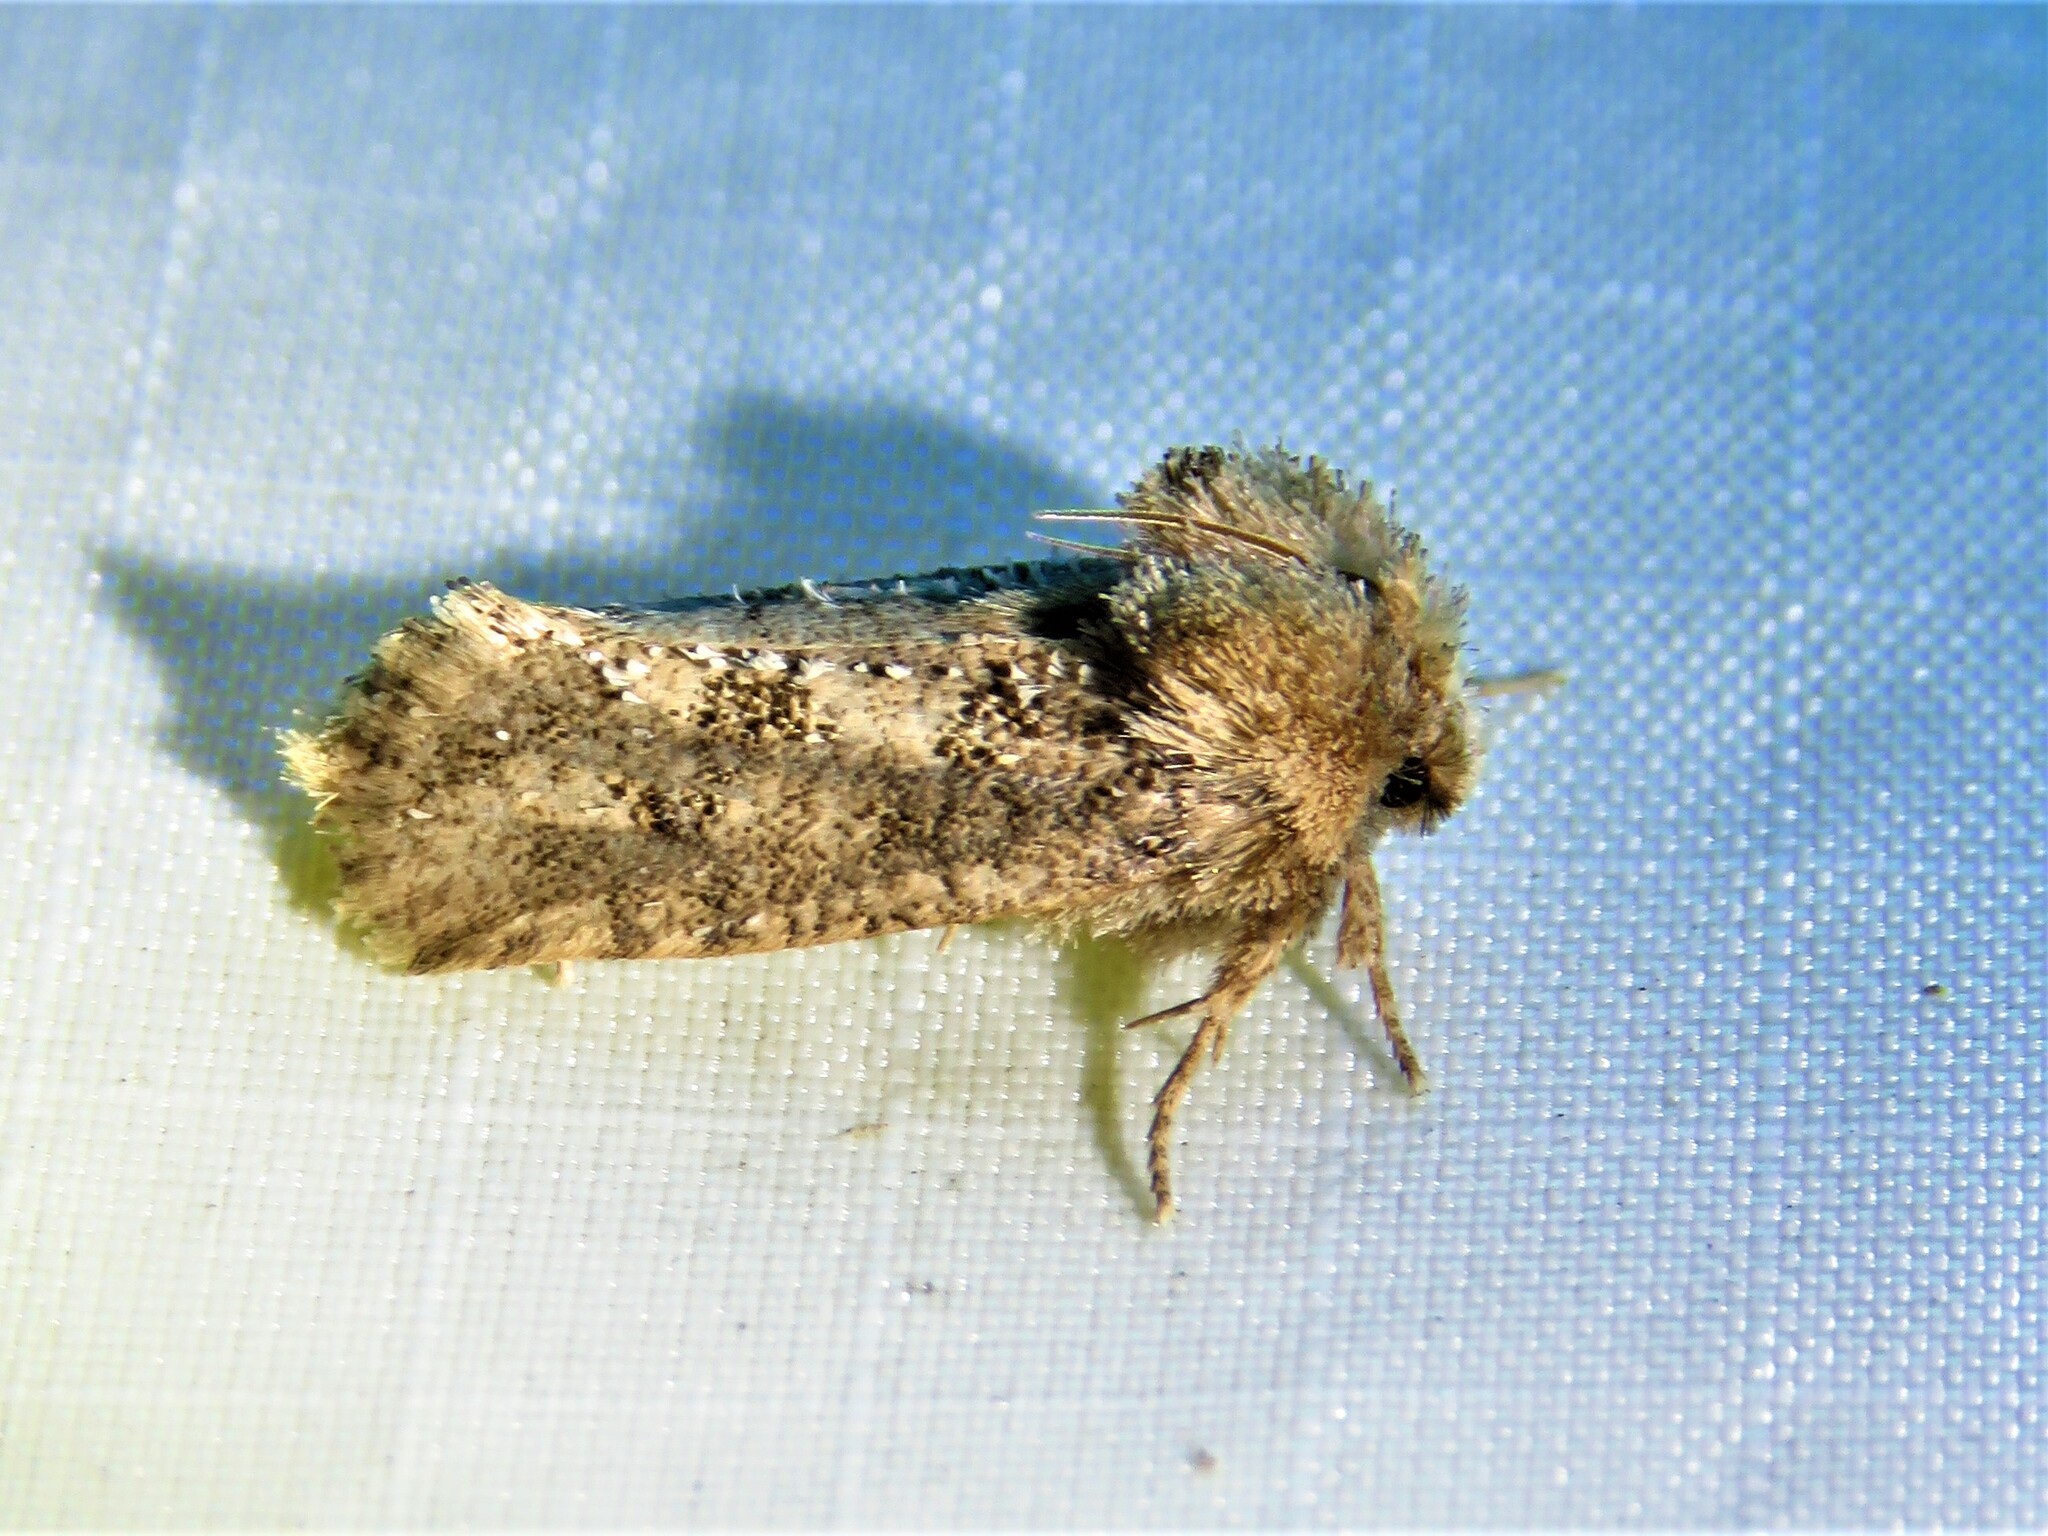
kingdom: Animalia
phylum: Arthropoda
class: Insecta
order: Lepidoptera
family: Tineidae
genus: Acrolophus
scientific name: Acrolophus arcanella
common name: Arcane grass tubeworm moth
